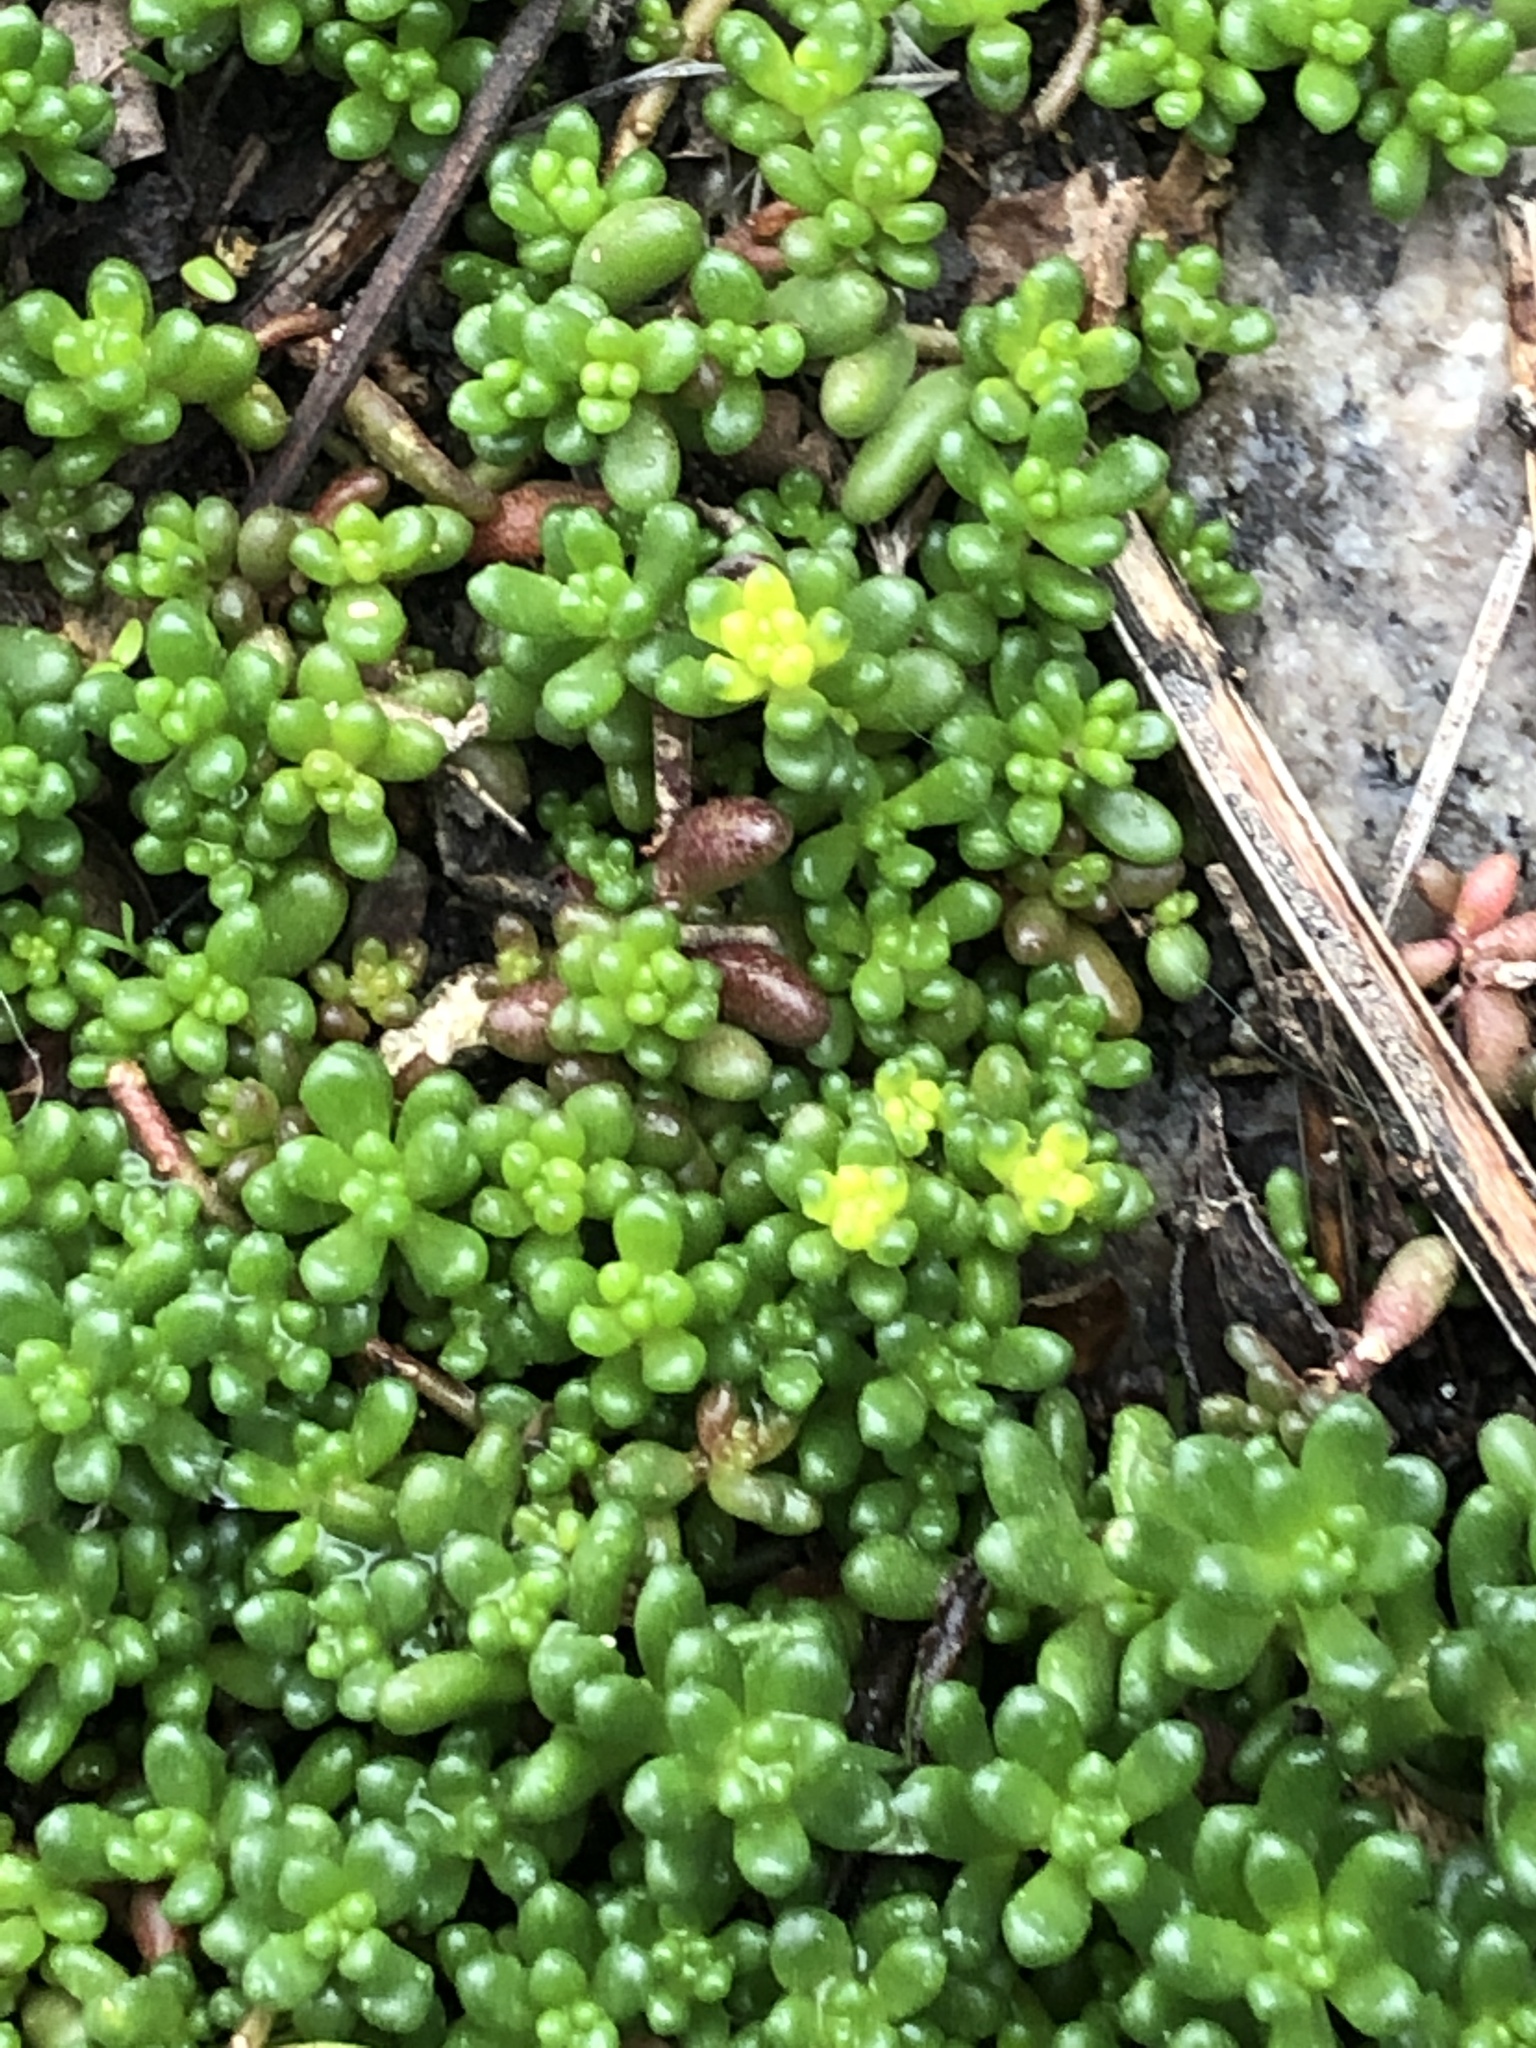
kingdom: Plantae
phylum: Tracheophyta
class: Magnoliopsida
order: Saxifragales
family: Crassulaceae
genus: Sedum
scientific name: Sedum album
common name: White stonecrop
